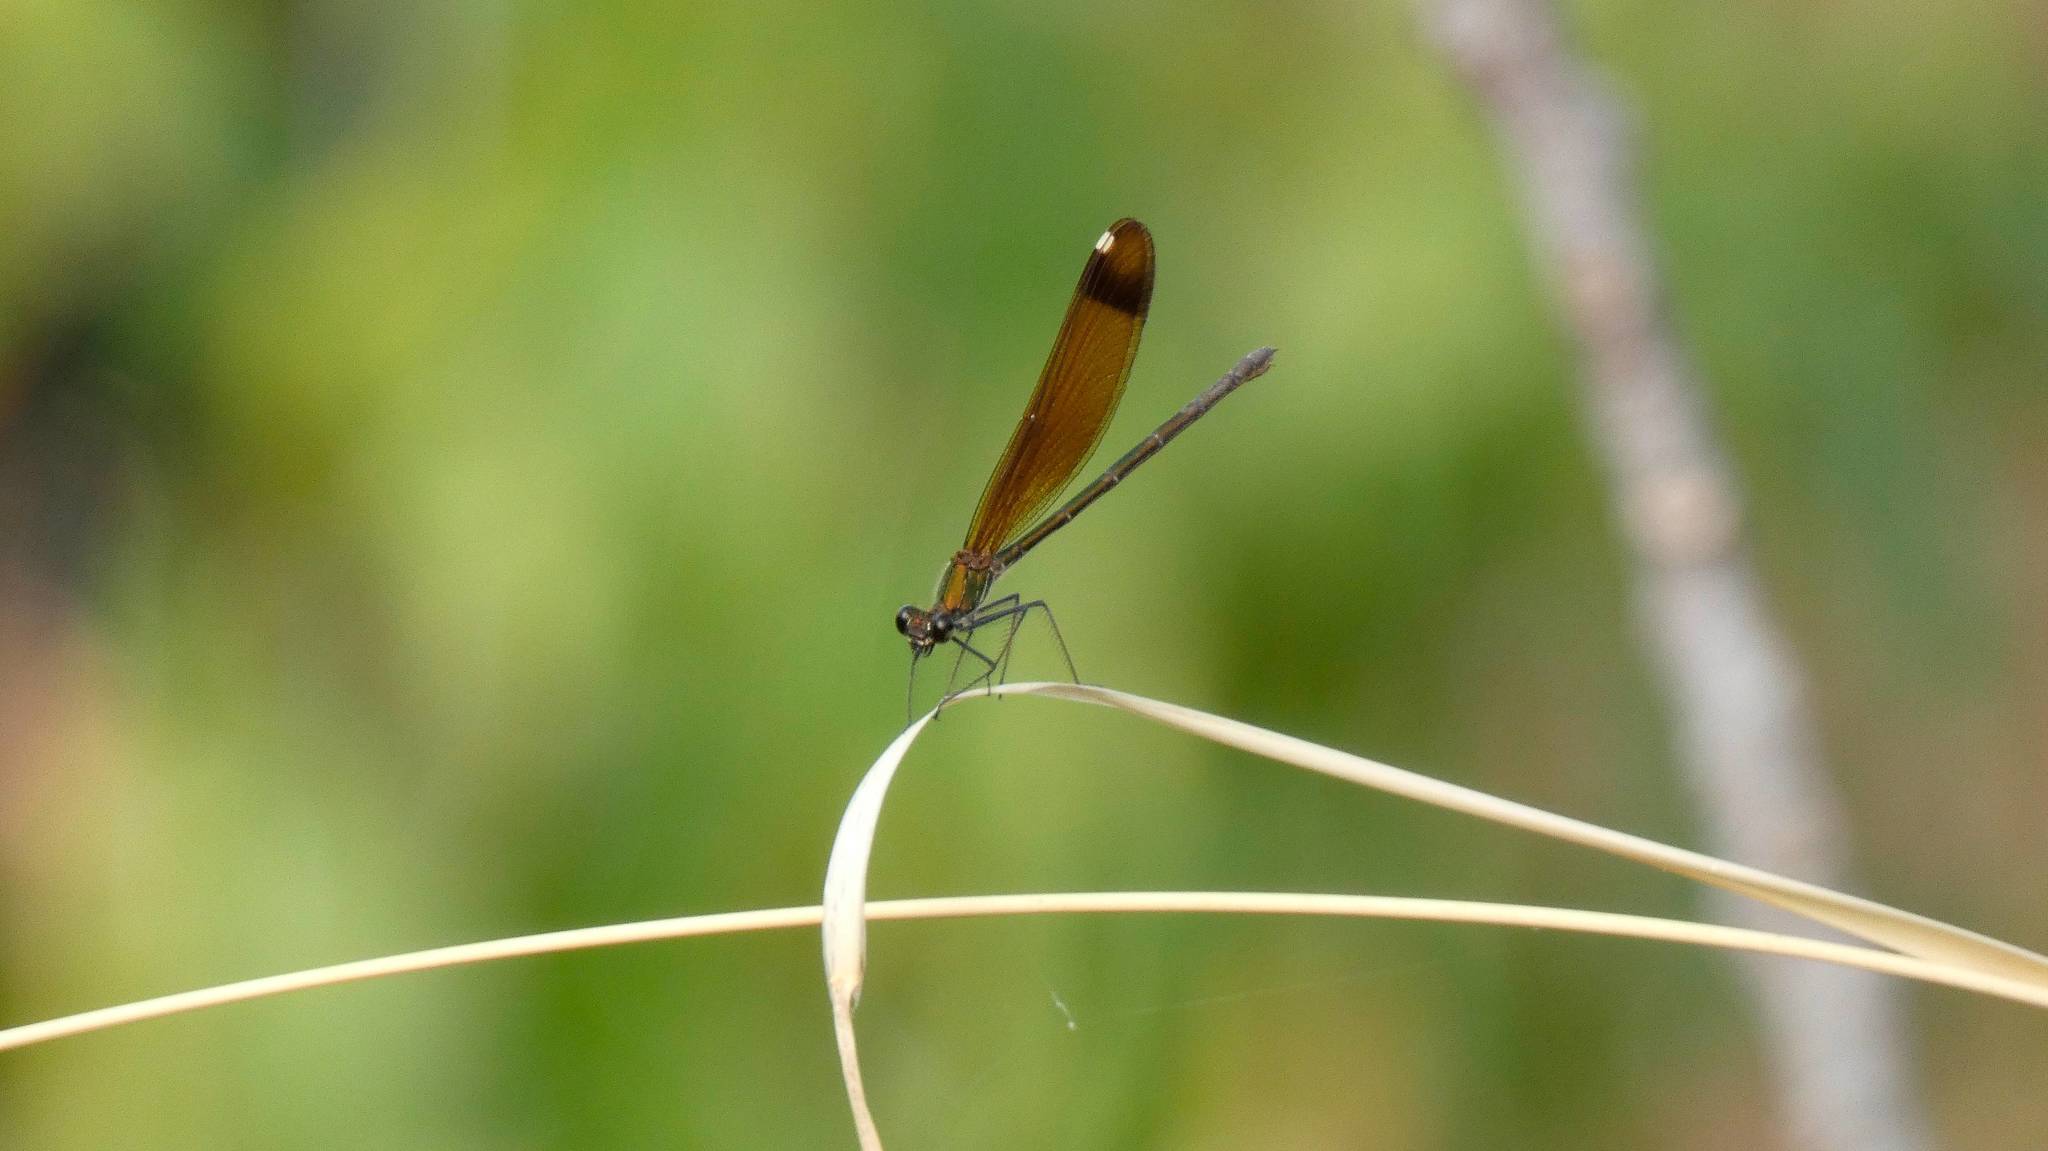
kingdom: Animalia
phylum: Arthropoda
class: Insecta
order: Odonata
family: Calopterygidae
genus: Calopteryx
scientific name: Calopteryx haemorrhoidalis
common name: Copper demoiselle
